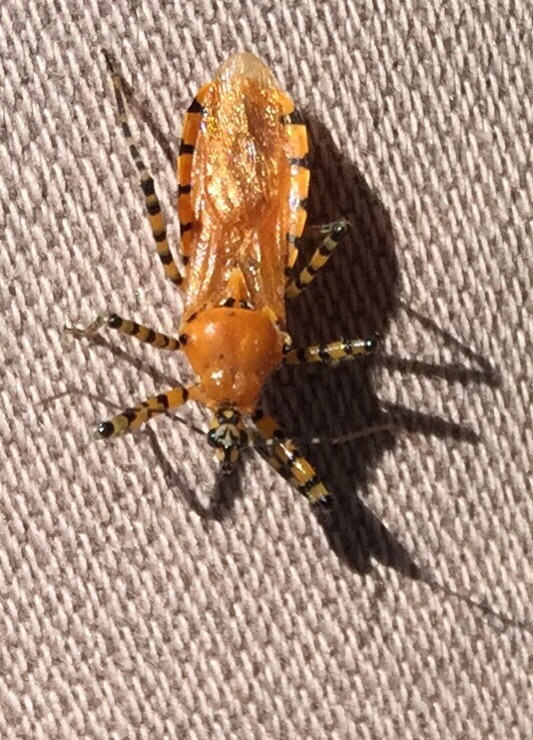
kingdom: Animalia
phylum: Arthropoda
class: Insecta
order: Hemiptera
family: Reduviidae
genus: Pselliopus
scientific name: Pselliopus barberi
